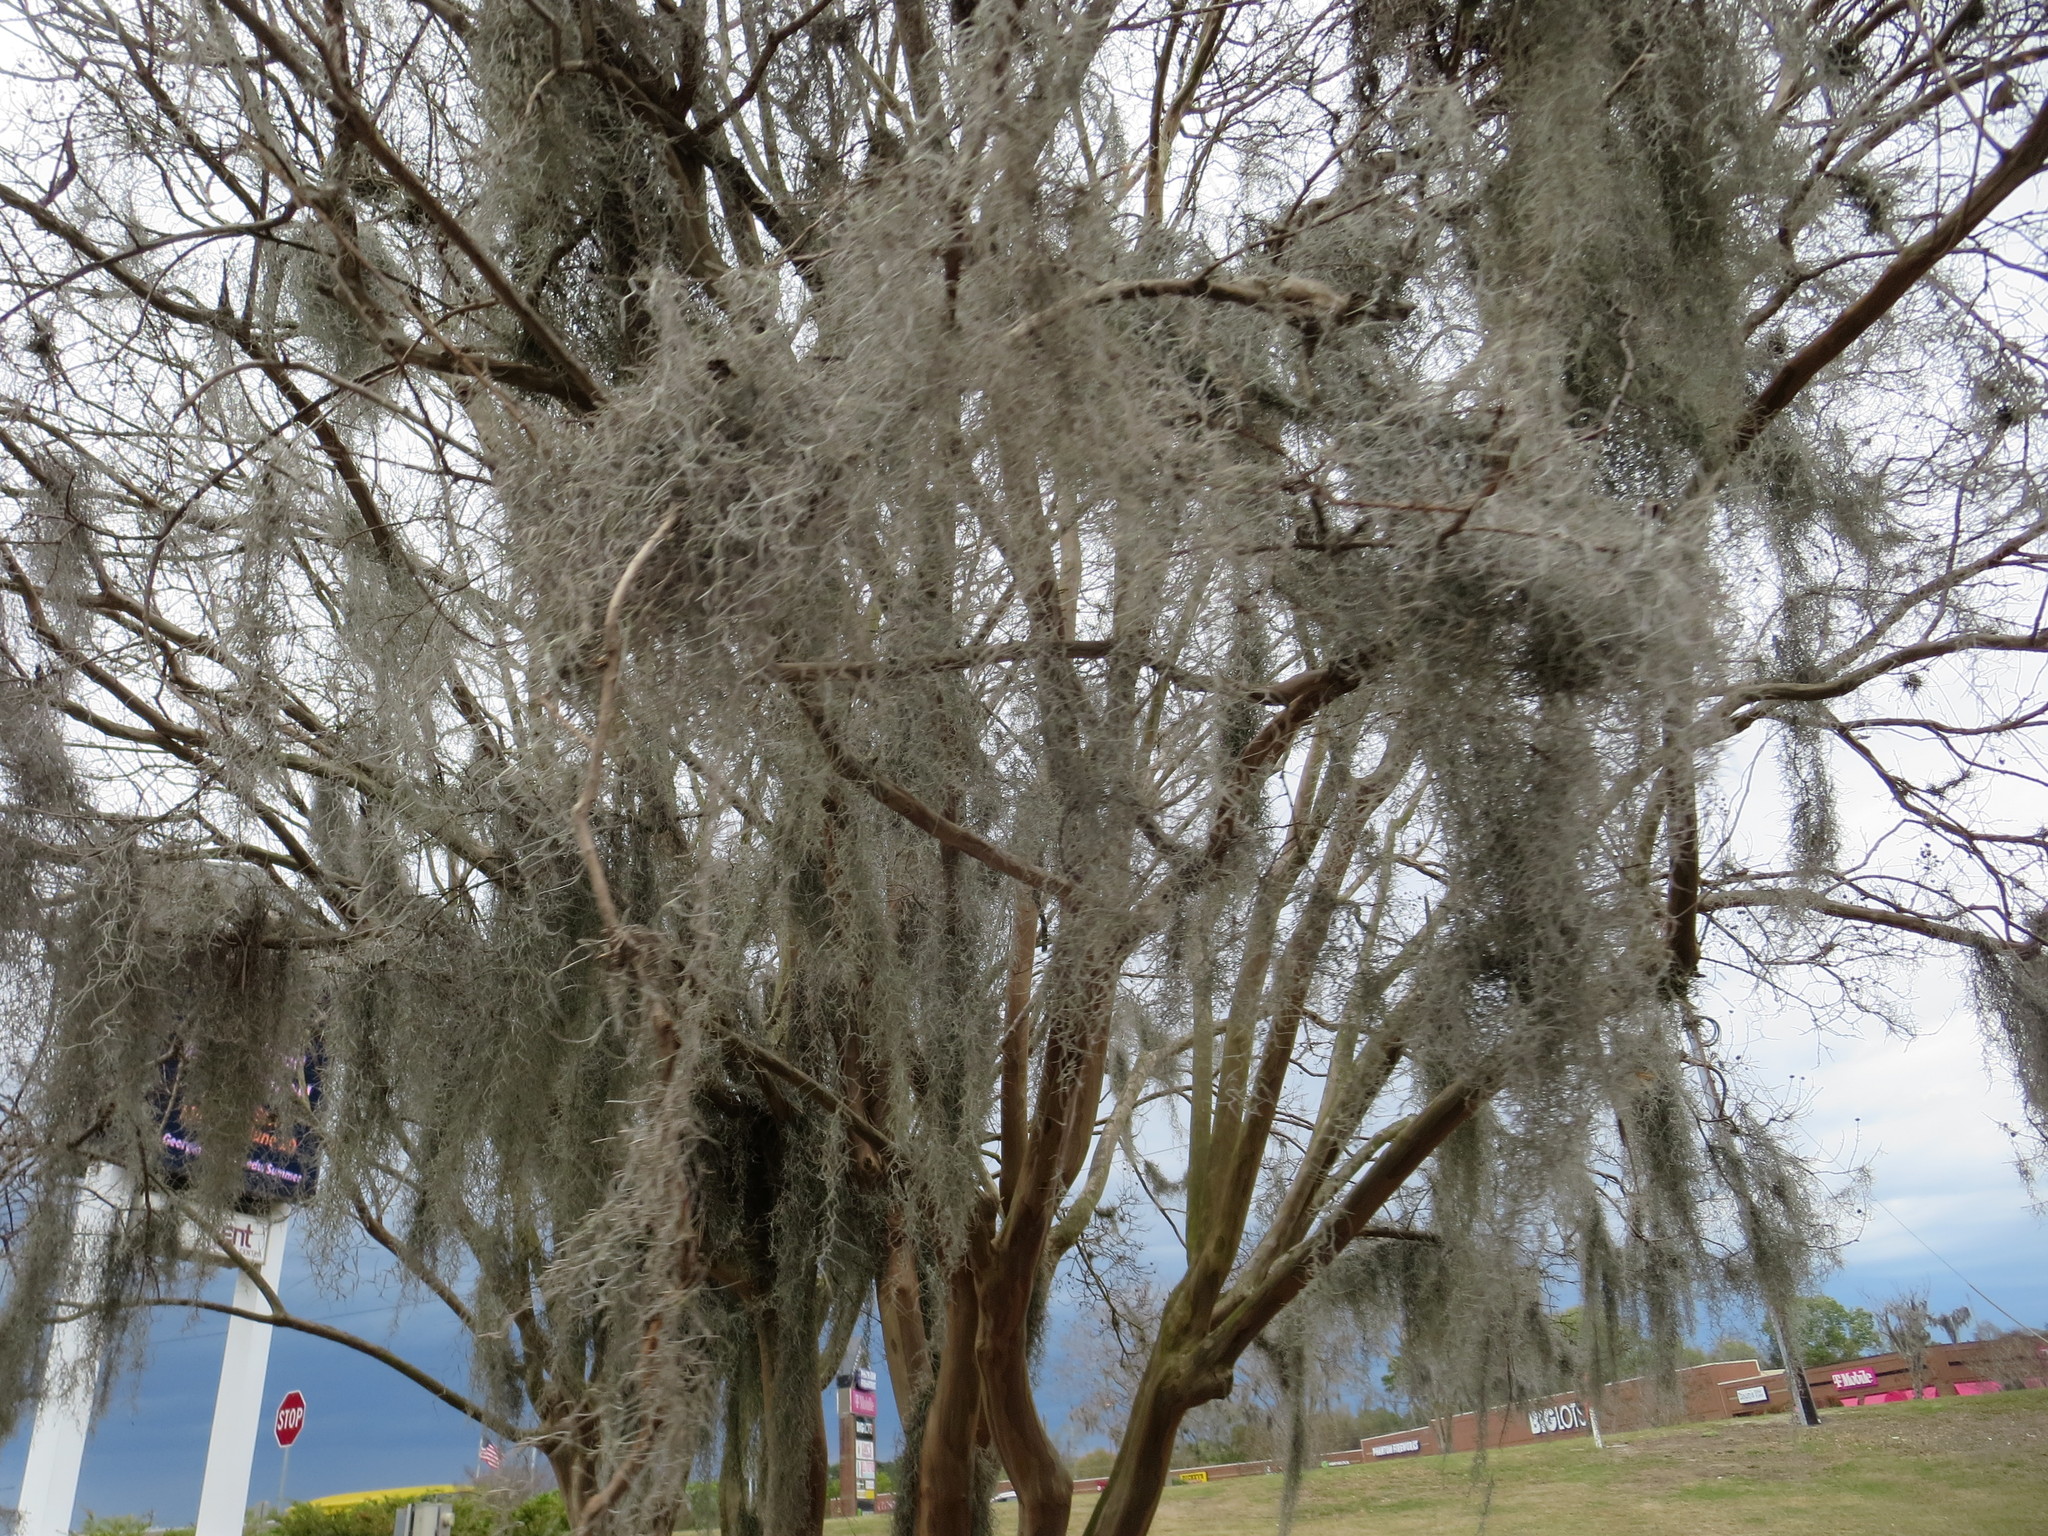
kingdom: Plantae
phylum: Tracheophyta
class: Liliopsida
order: Poales
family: Bromeliaceae
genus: Tillandsia
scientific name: Tillandsia usneoides
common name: Spanish moss
